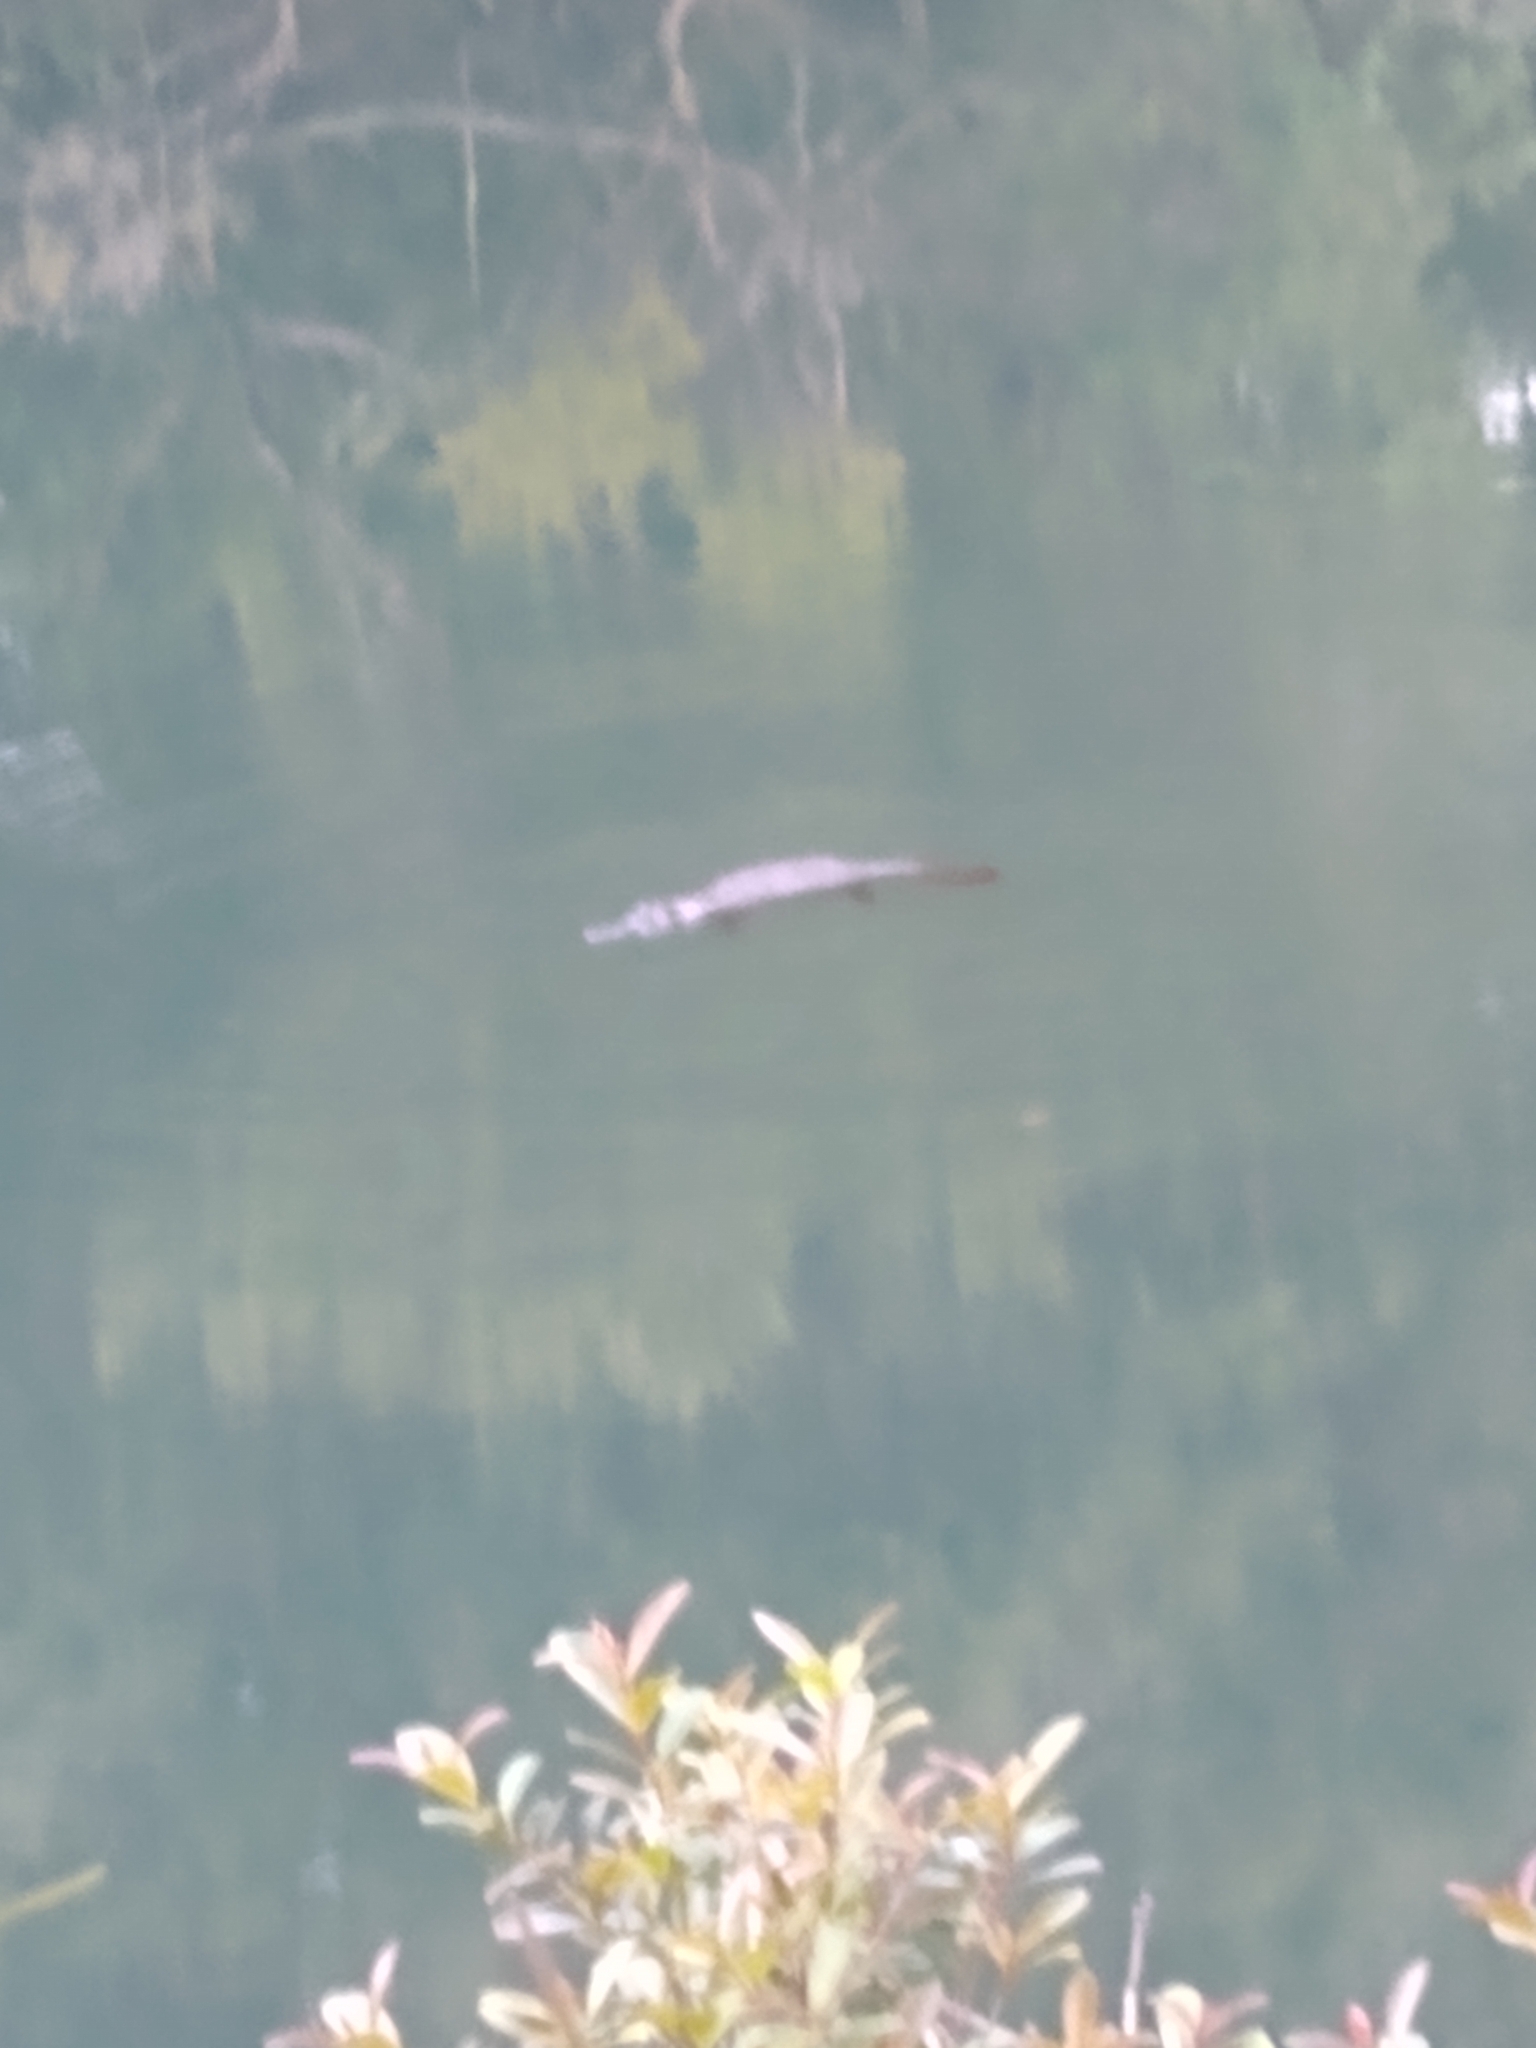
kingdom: Animalia
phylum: Chordata
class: Mammalia
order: Monotremata
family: Ornithorhynchidae
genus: Ornithorhynchus
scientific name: Ornithorhynchus anatinus
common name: Platypus
